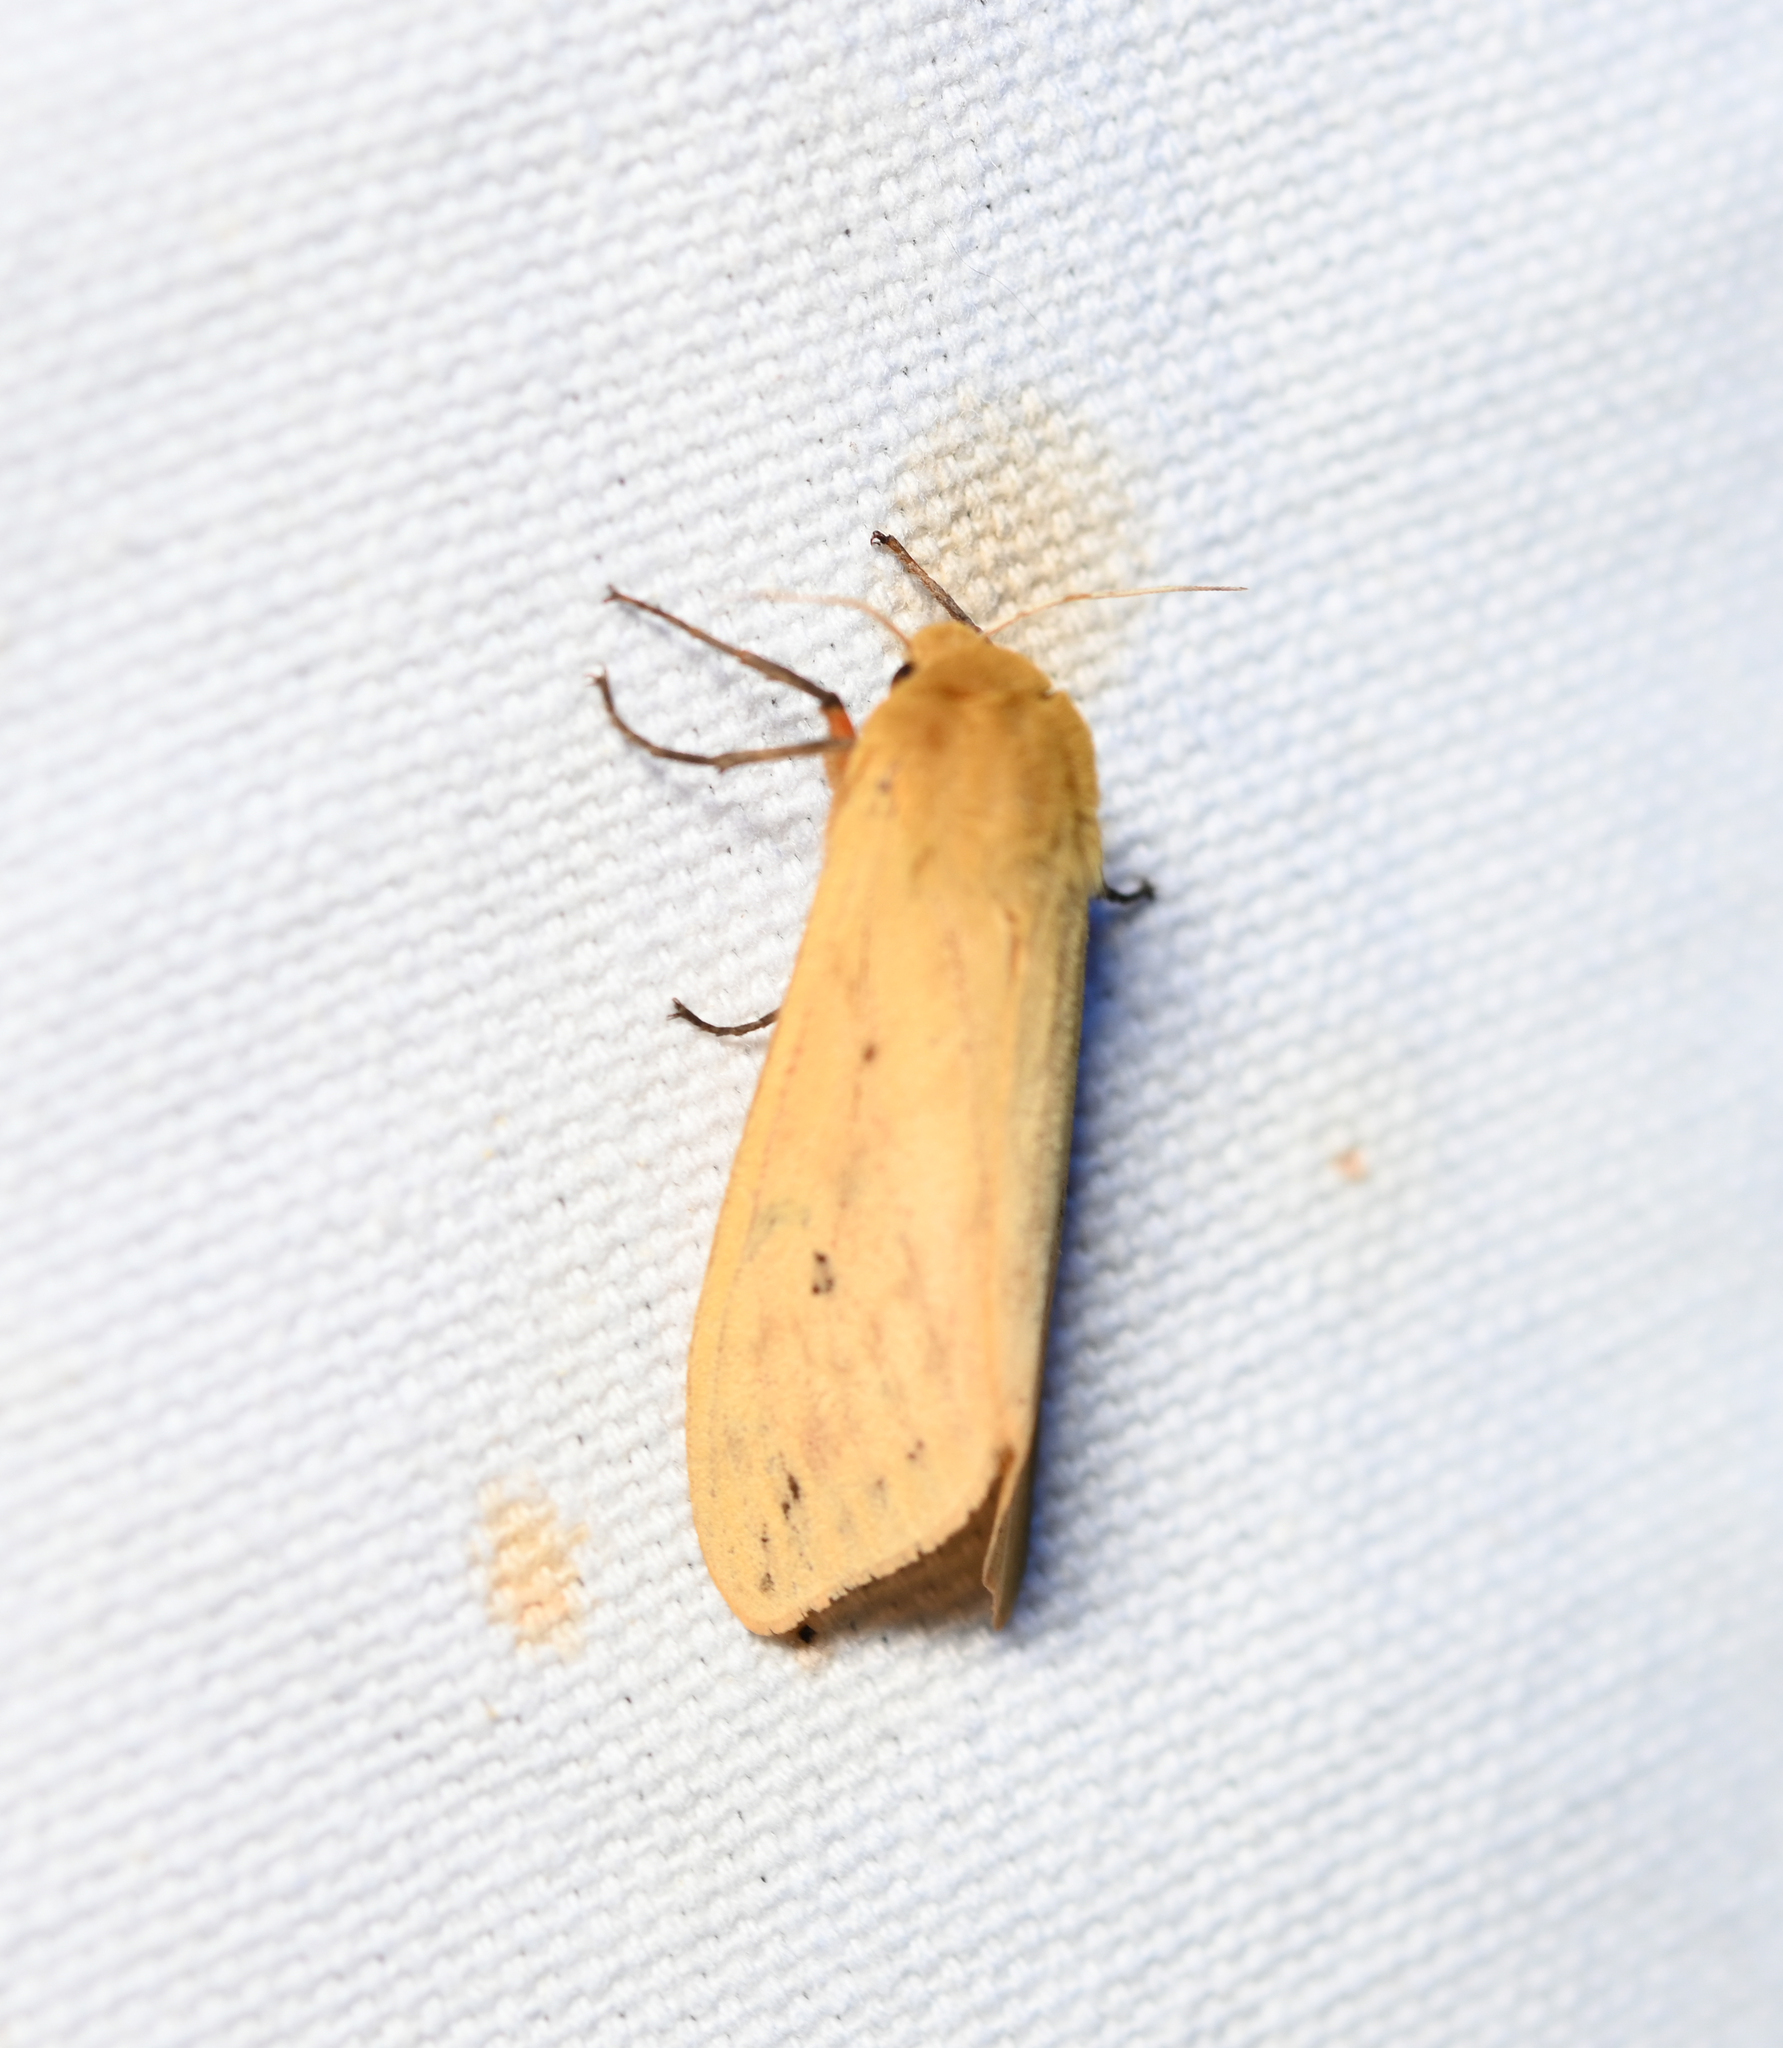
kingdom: Animalia
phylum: Arthropoda
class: Insecta
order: Lepidoptera
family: Erebidae
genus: Pyrrharctia
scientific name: Pyrrharctia isabella
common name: Isabella tiger moth
